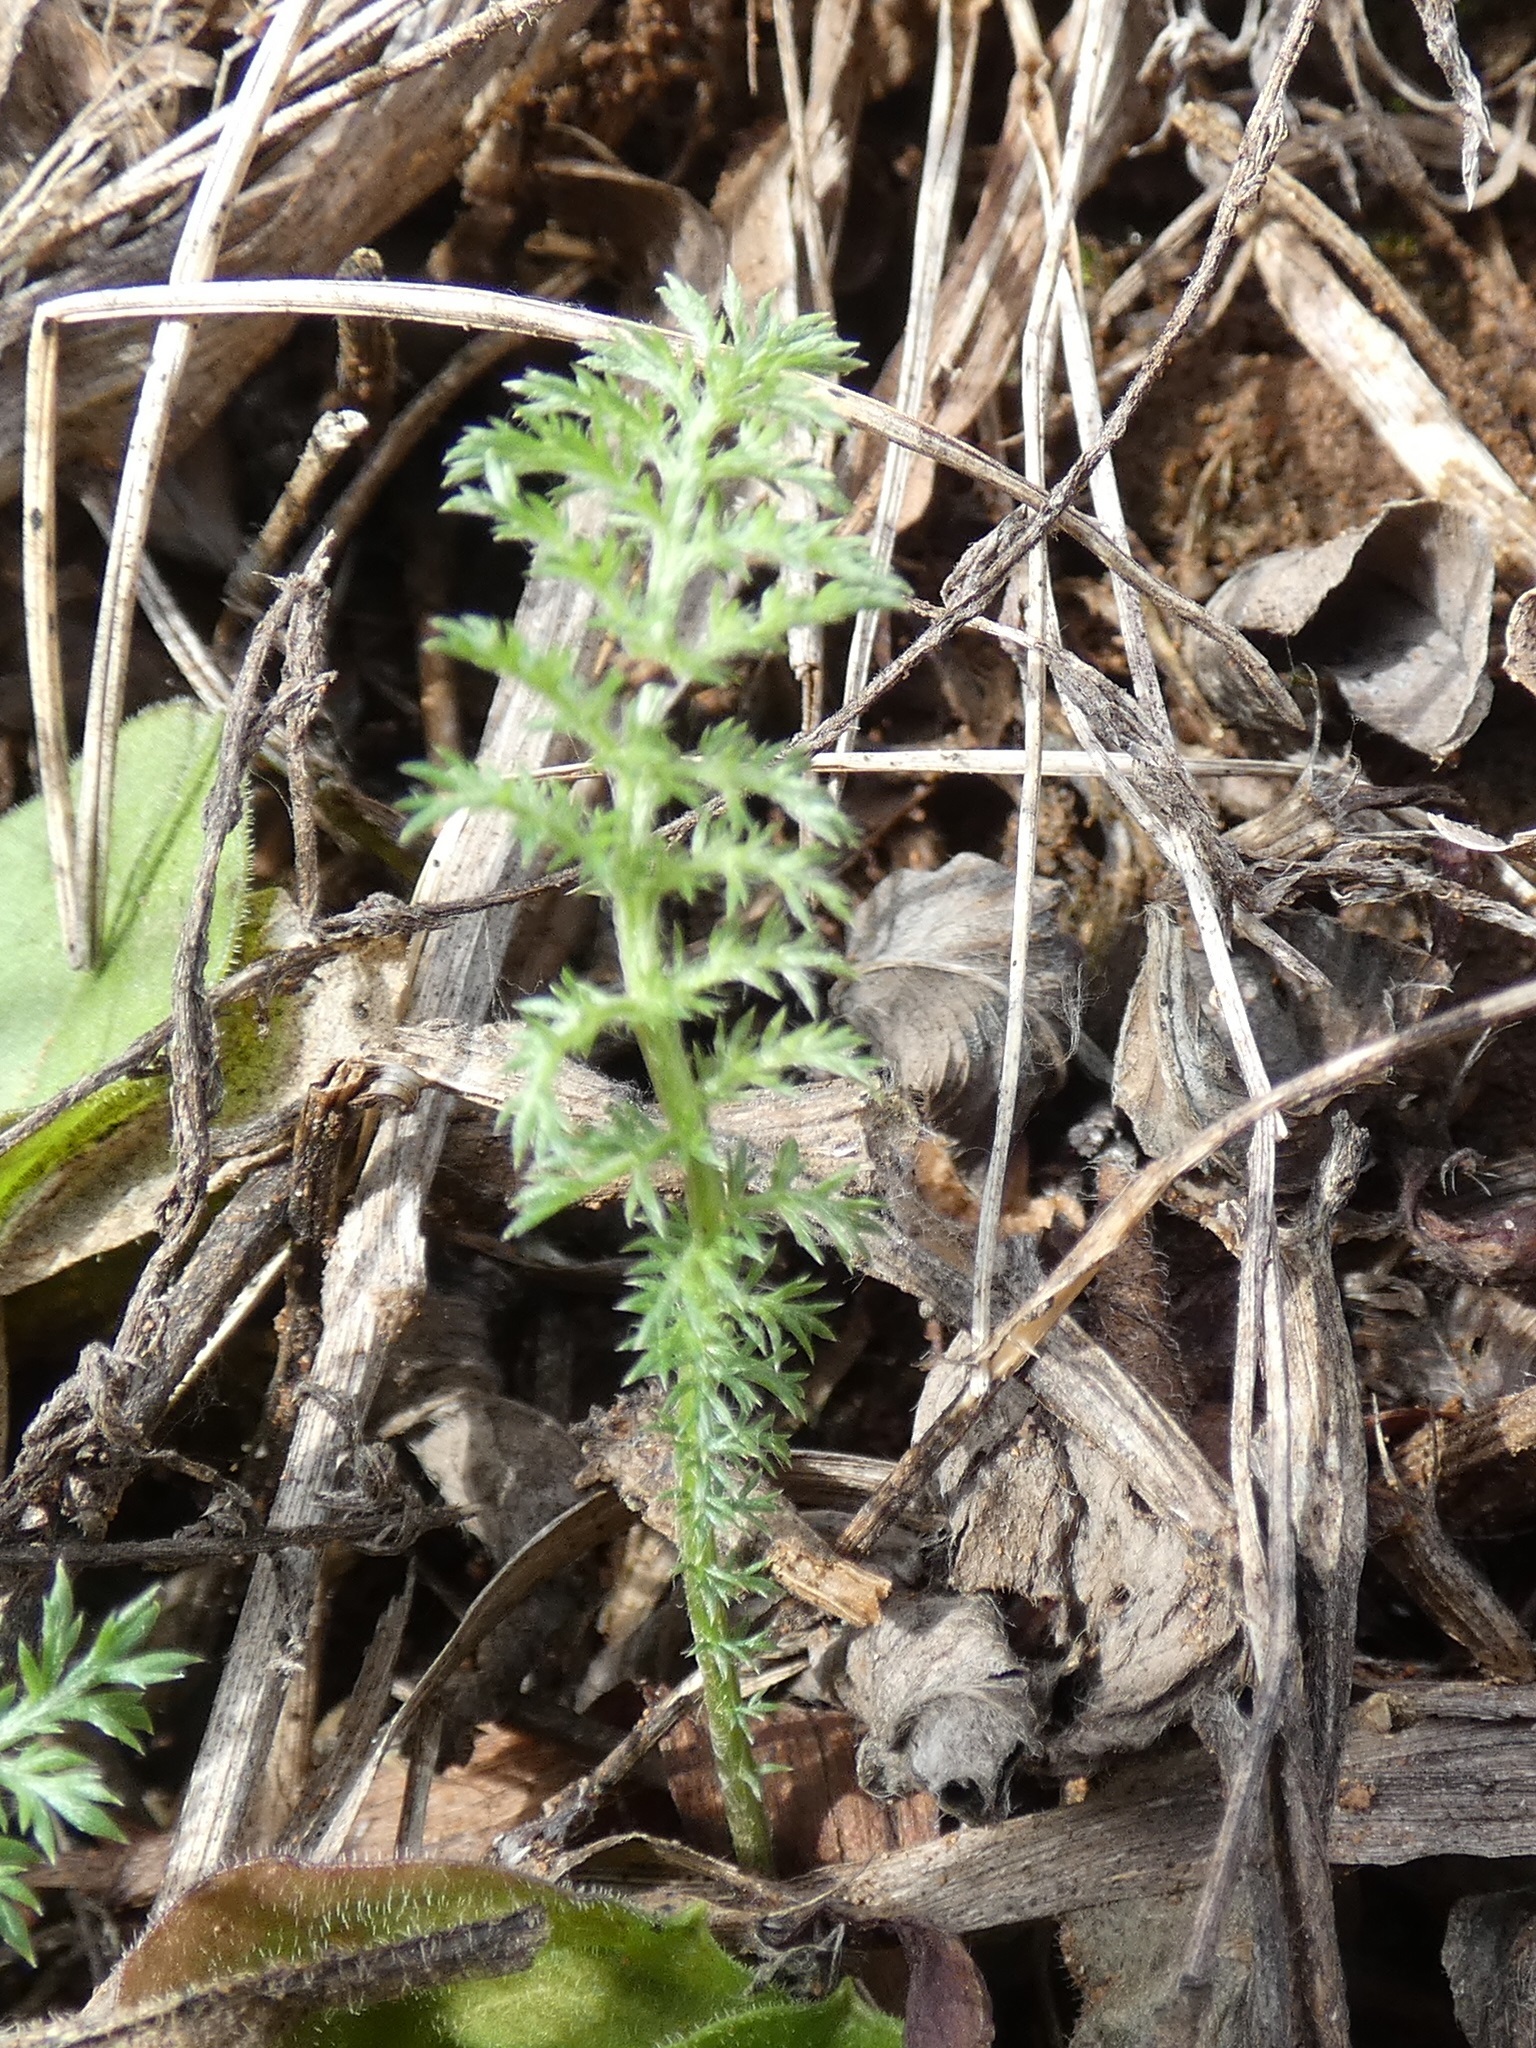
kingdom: Plantae
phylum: Tracheophyta
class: Magnoliopsida
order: Asterales
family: Asteraceae
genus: Achillea
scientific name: Achillea millefolium
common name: Yarrow
